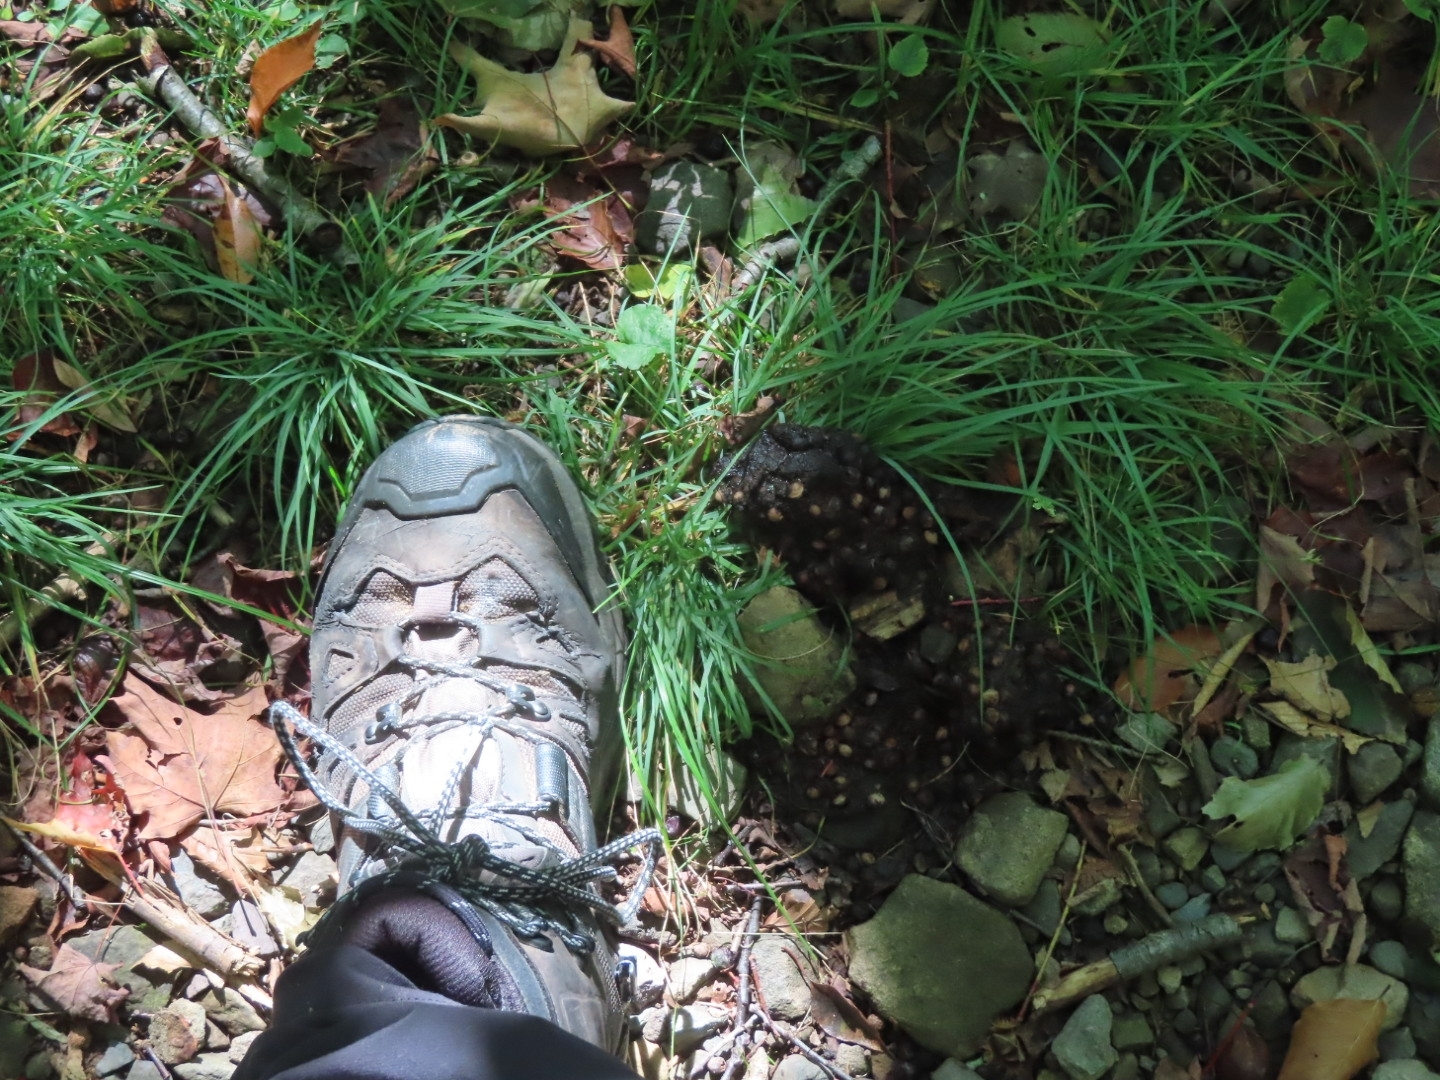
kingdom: Animalia
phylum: Chordata
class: Mammalia
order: Carnivora
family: Ursidae
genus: Ursus
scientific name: Ursus americanus
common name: American black bear
